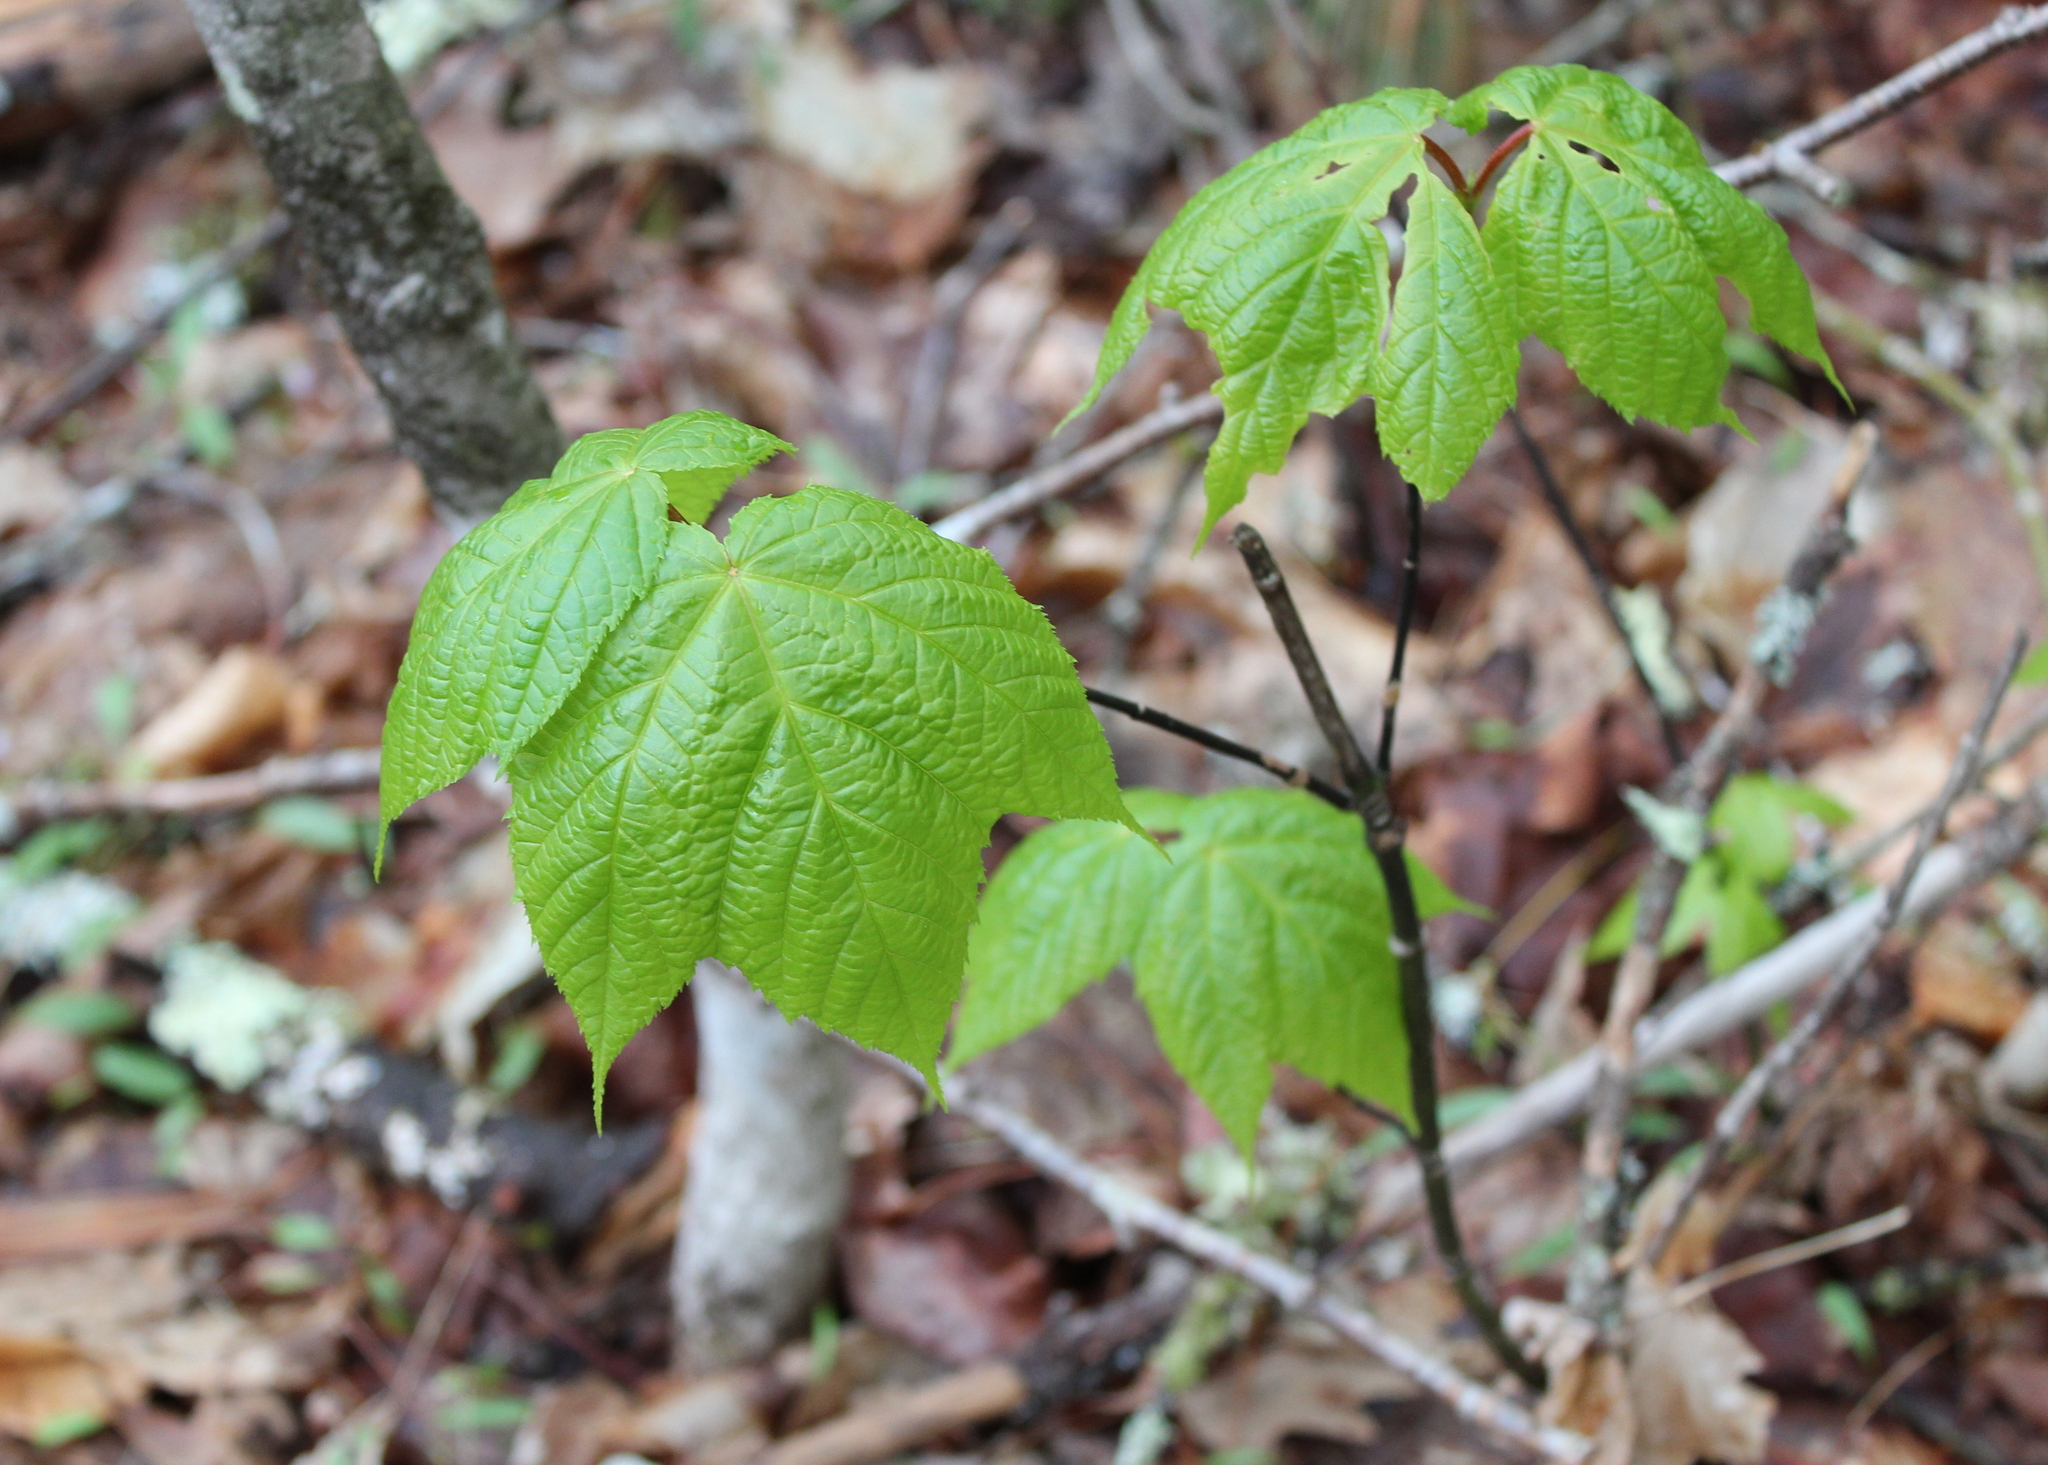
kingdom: Plantae
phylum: Tracheophyta
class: Magnoliopsida
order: Sapindales
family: Sapindaceae
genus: Acer
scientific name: Acer pensylvanicum
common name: Moosewood
